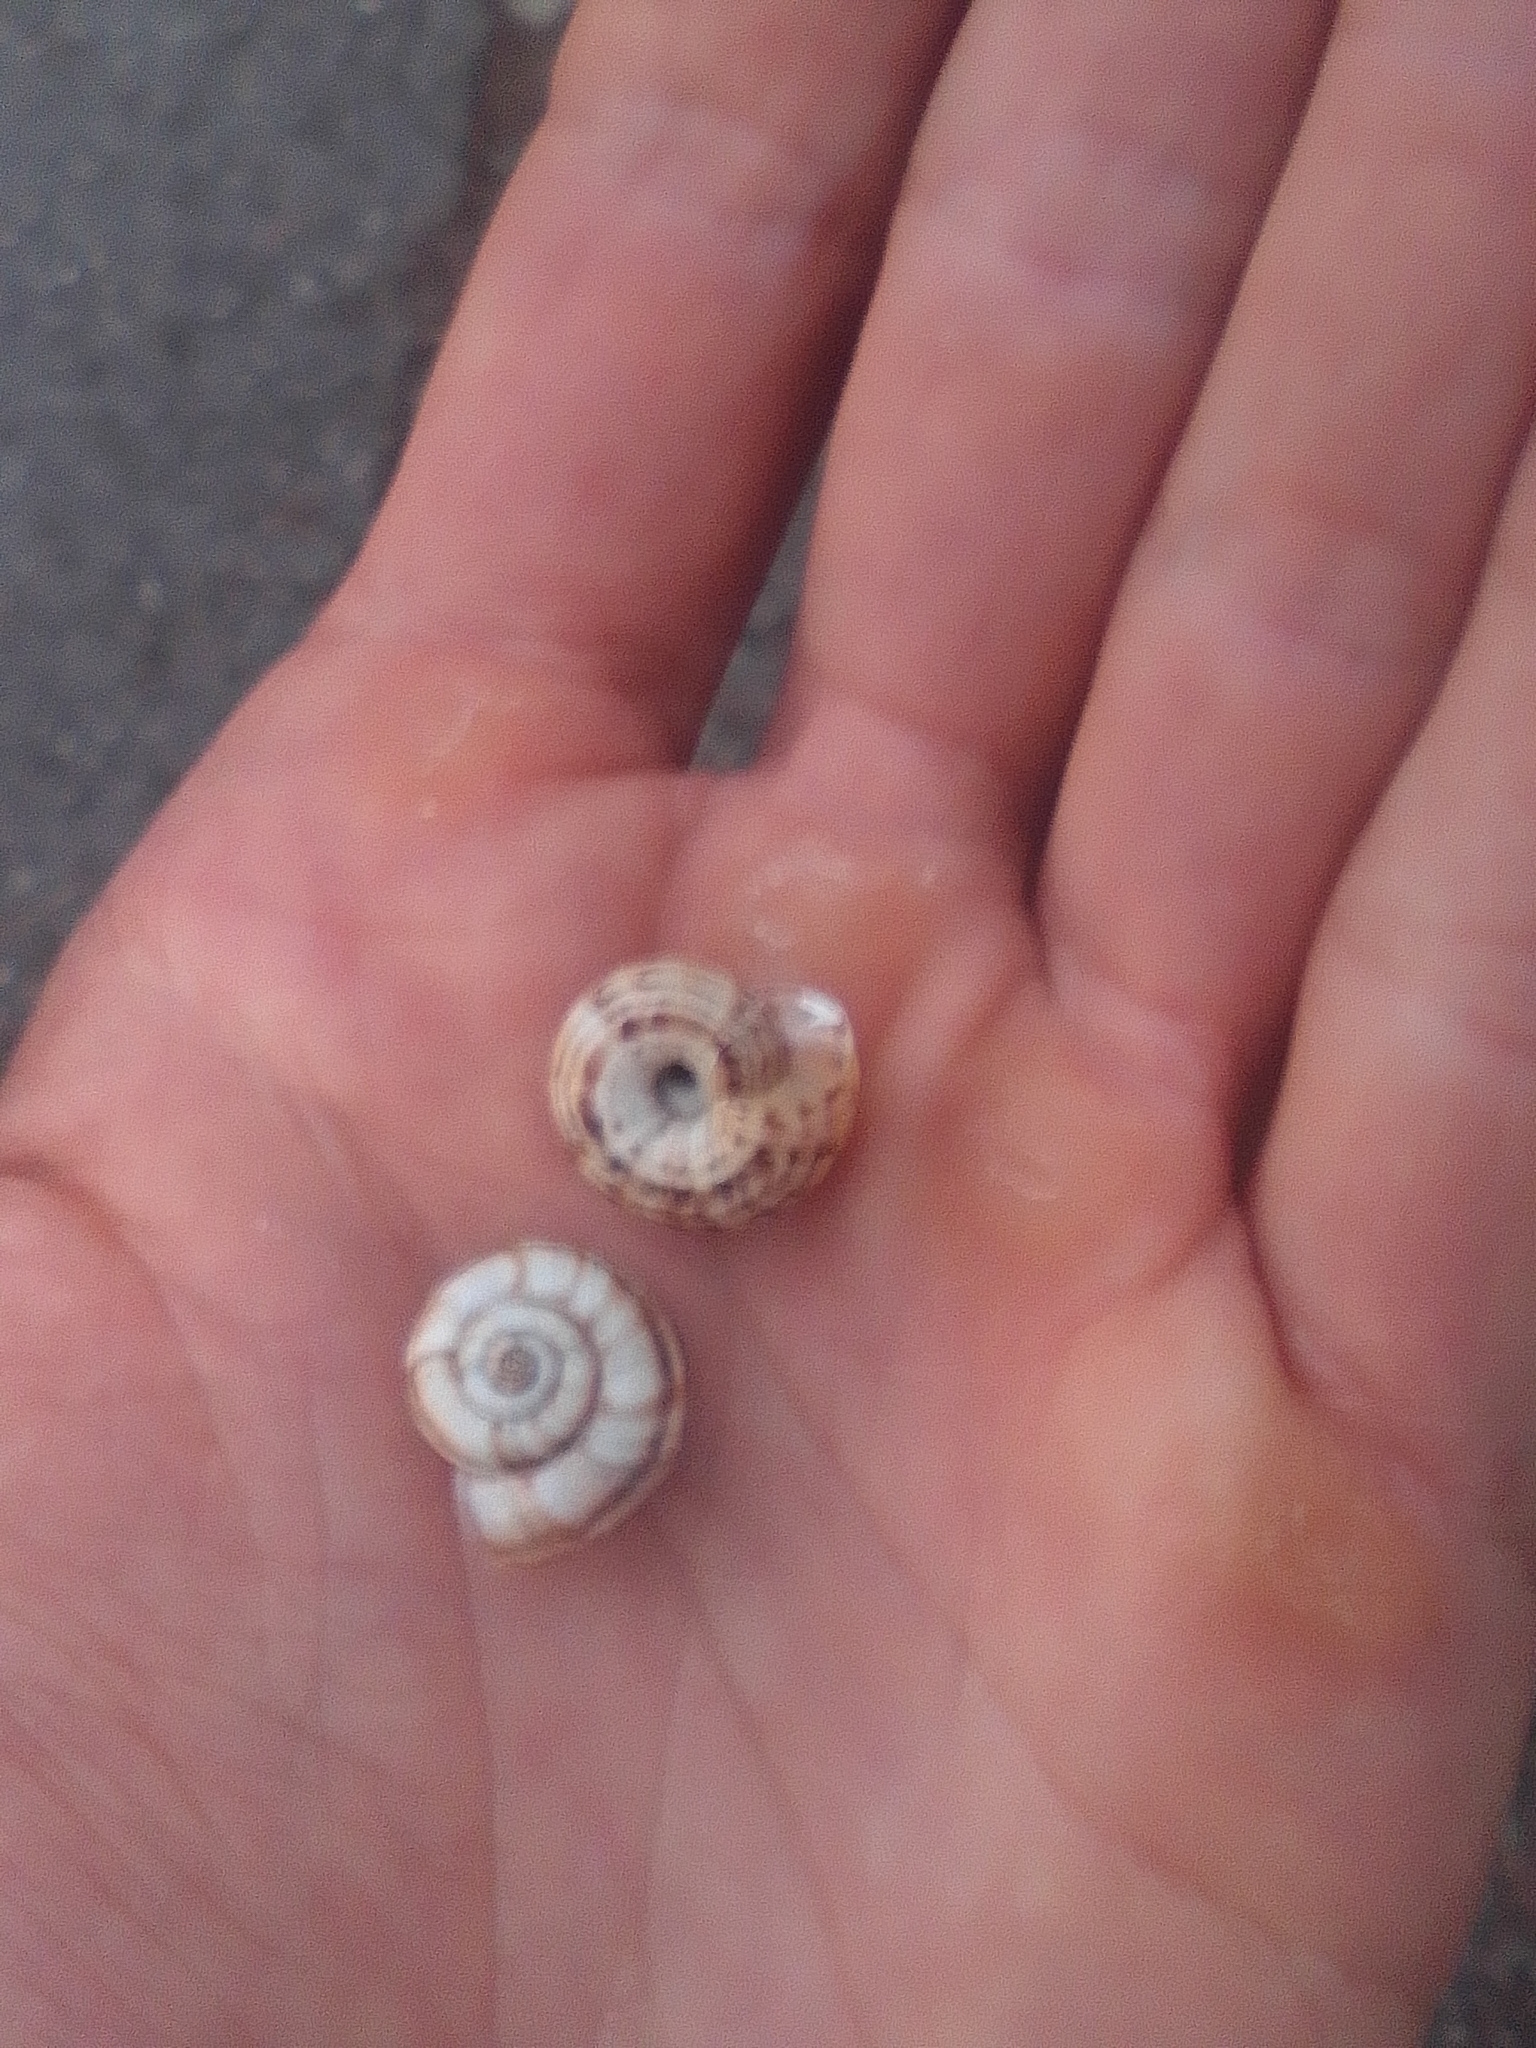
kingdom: Animalia
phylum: Mollusca
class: Gastropoda
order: Stylommatophora
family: Geomitridae
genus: Xeropicta
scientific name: Xeropicta krynickii
